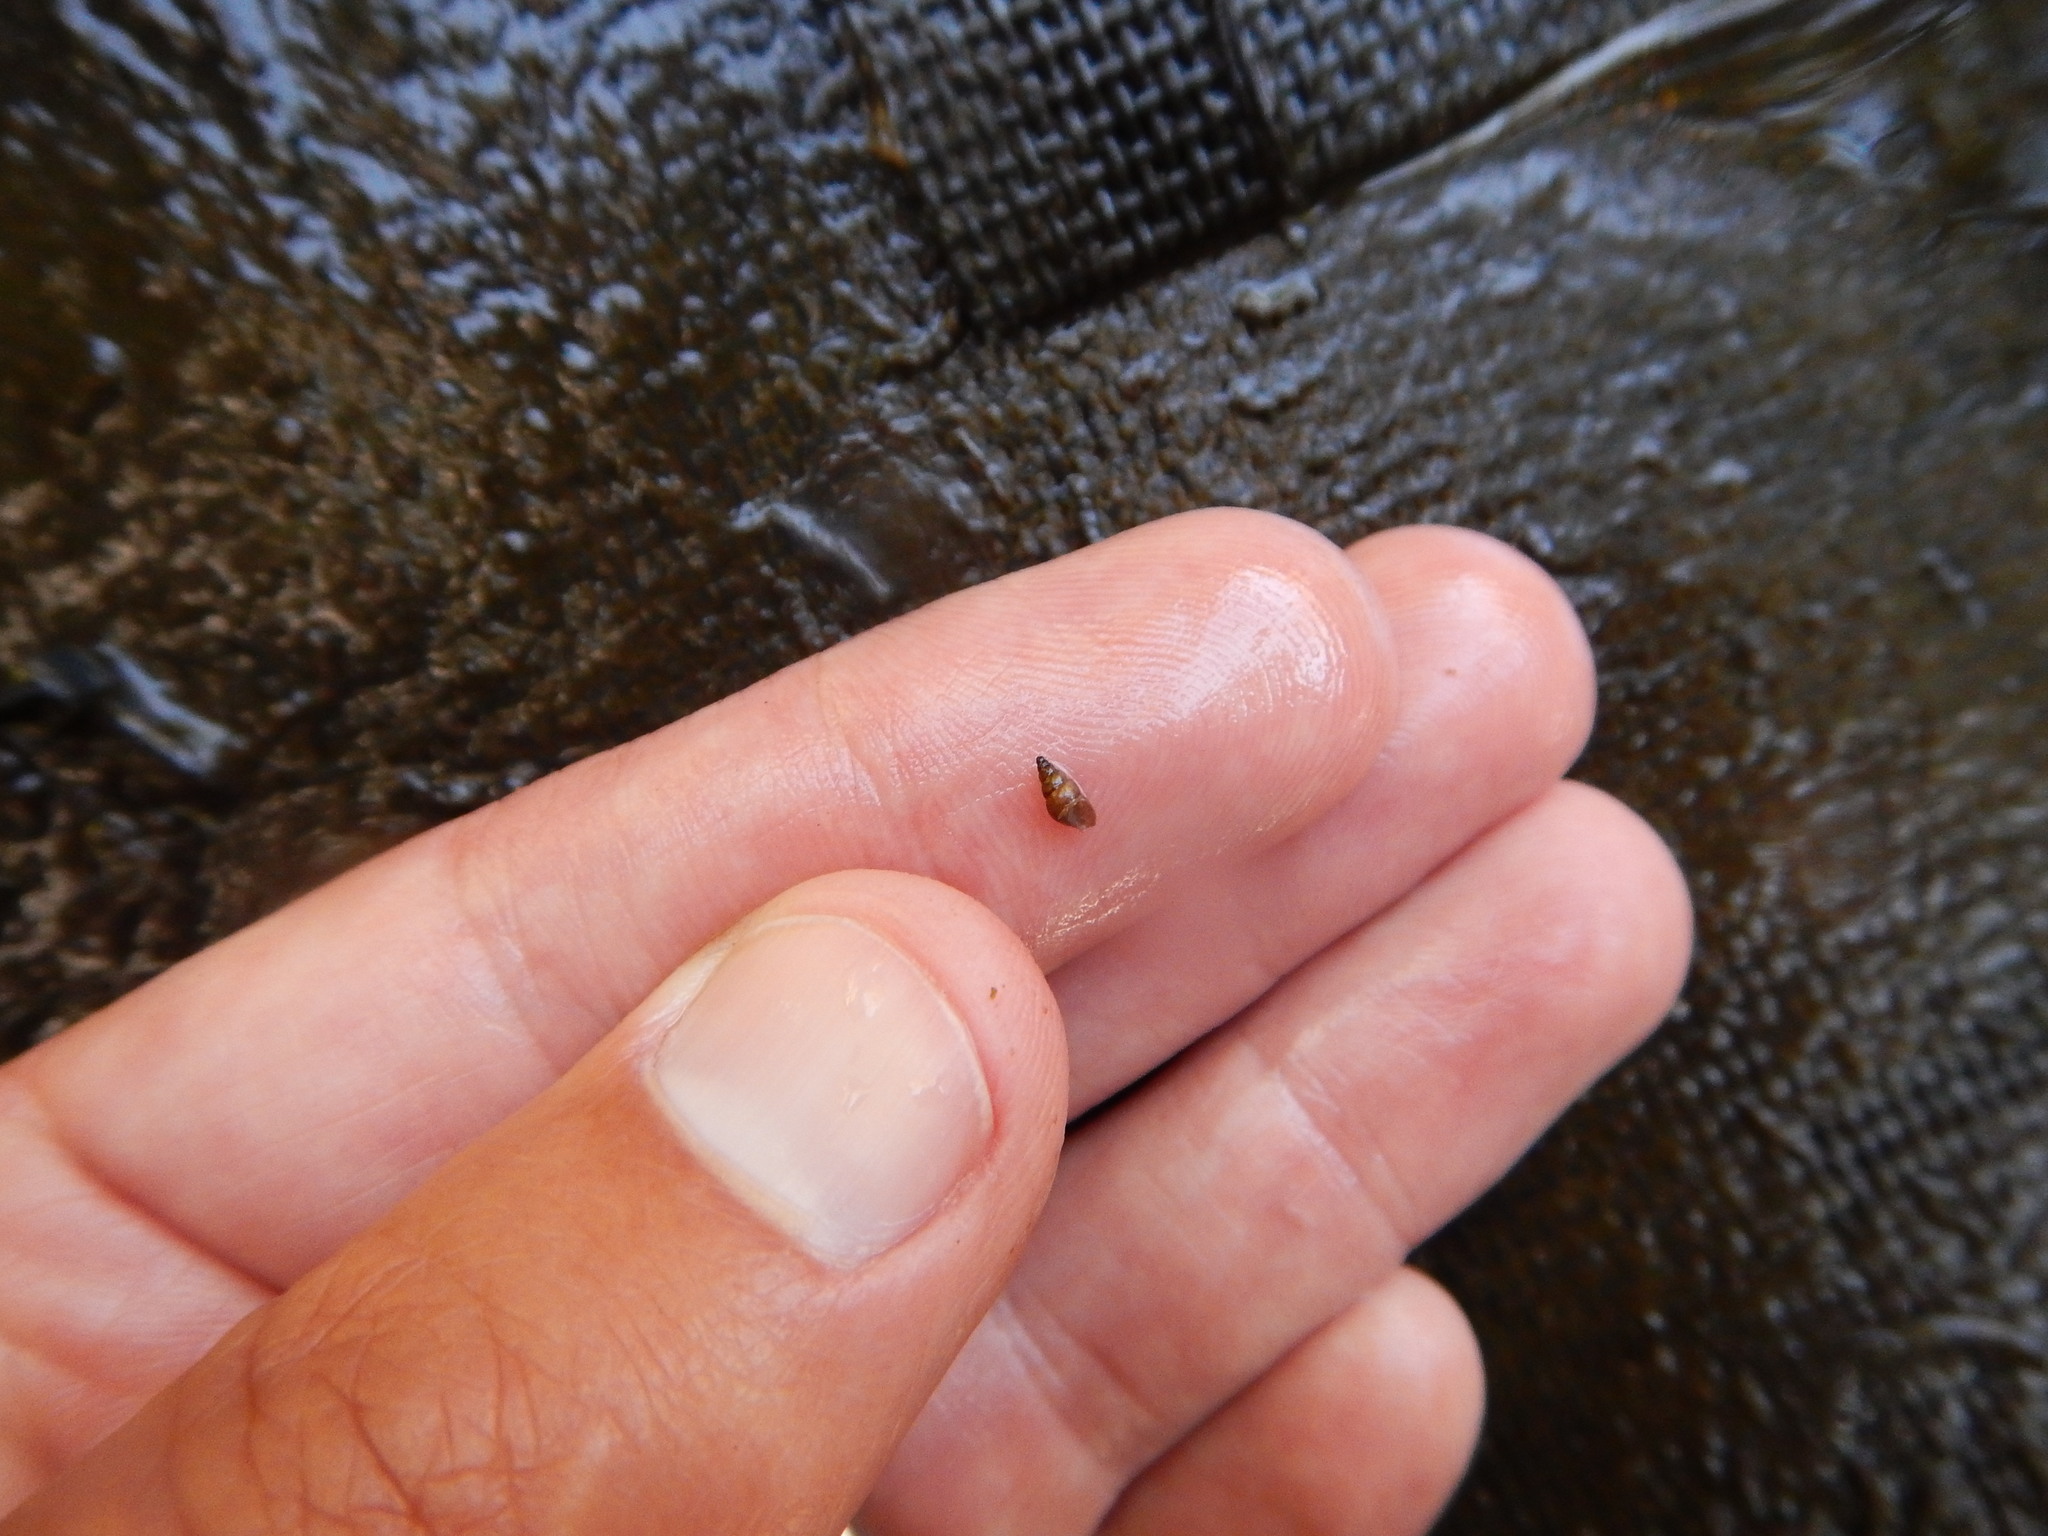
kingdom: Animalia
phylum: Mollusca
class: Gastropoda
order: Littorinimorpha
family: Tateidae
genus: Potamopyrgus
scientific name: Potamopyrgus antipodarum
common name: Jenkins' spire snail
